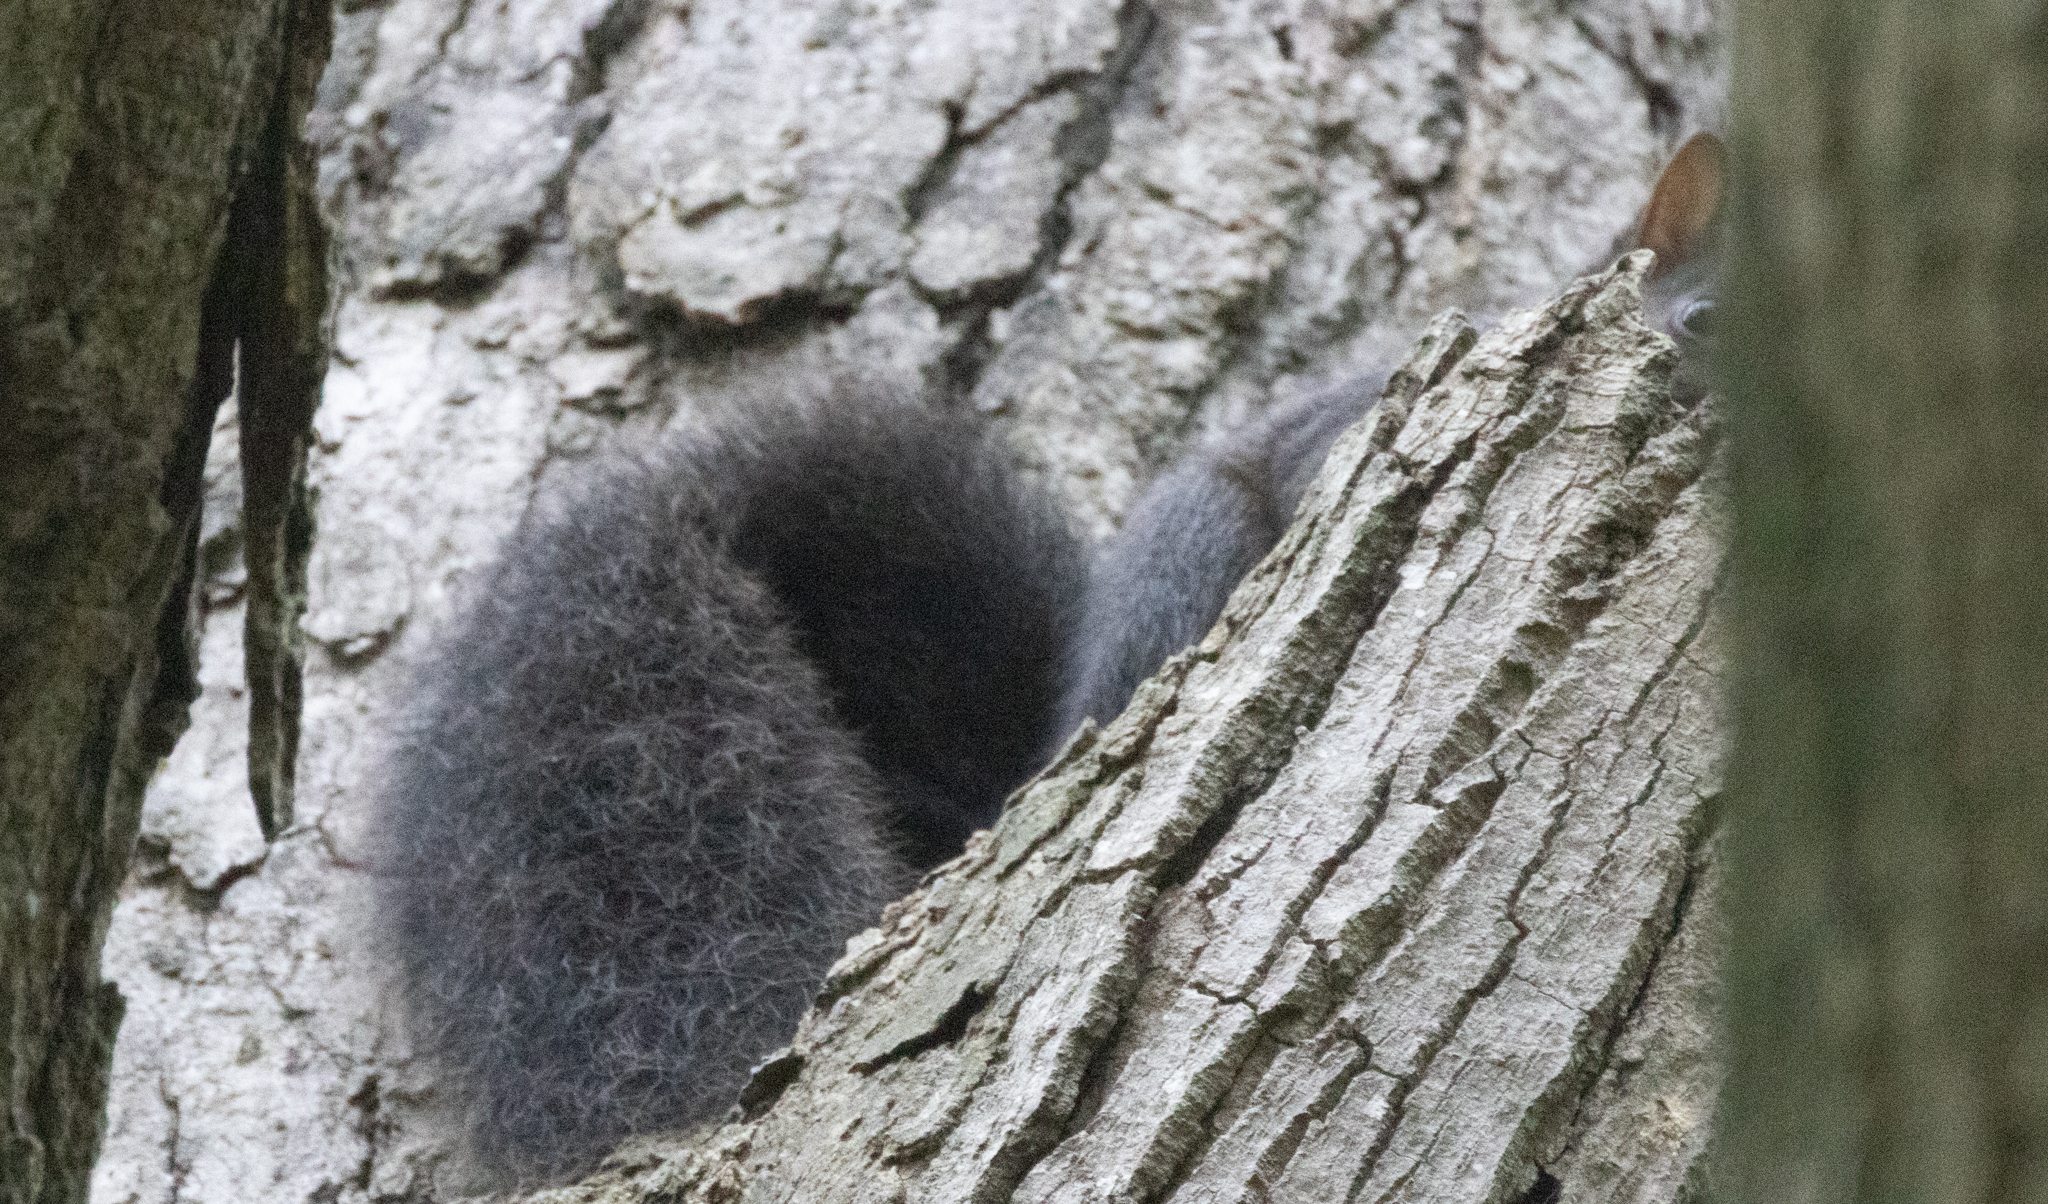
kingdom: Animalia
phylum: Chordata
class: Mammalia
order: Rodentia
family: Sciuridae
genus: Sciurus
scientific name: Sciurus carolinensis
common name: Eastern gray squirrel
